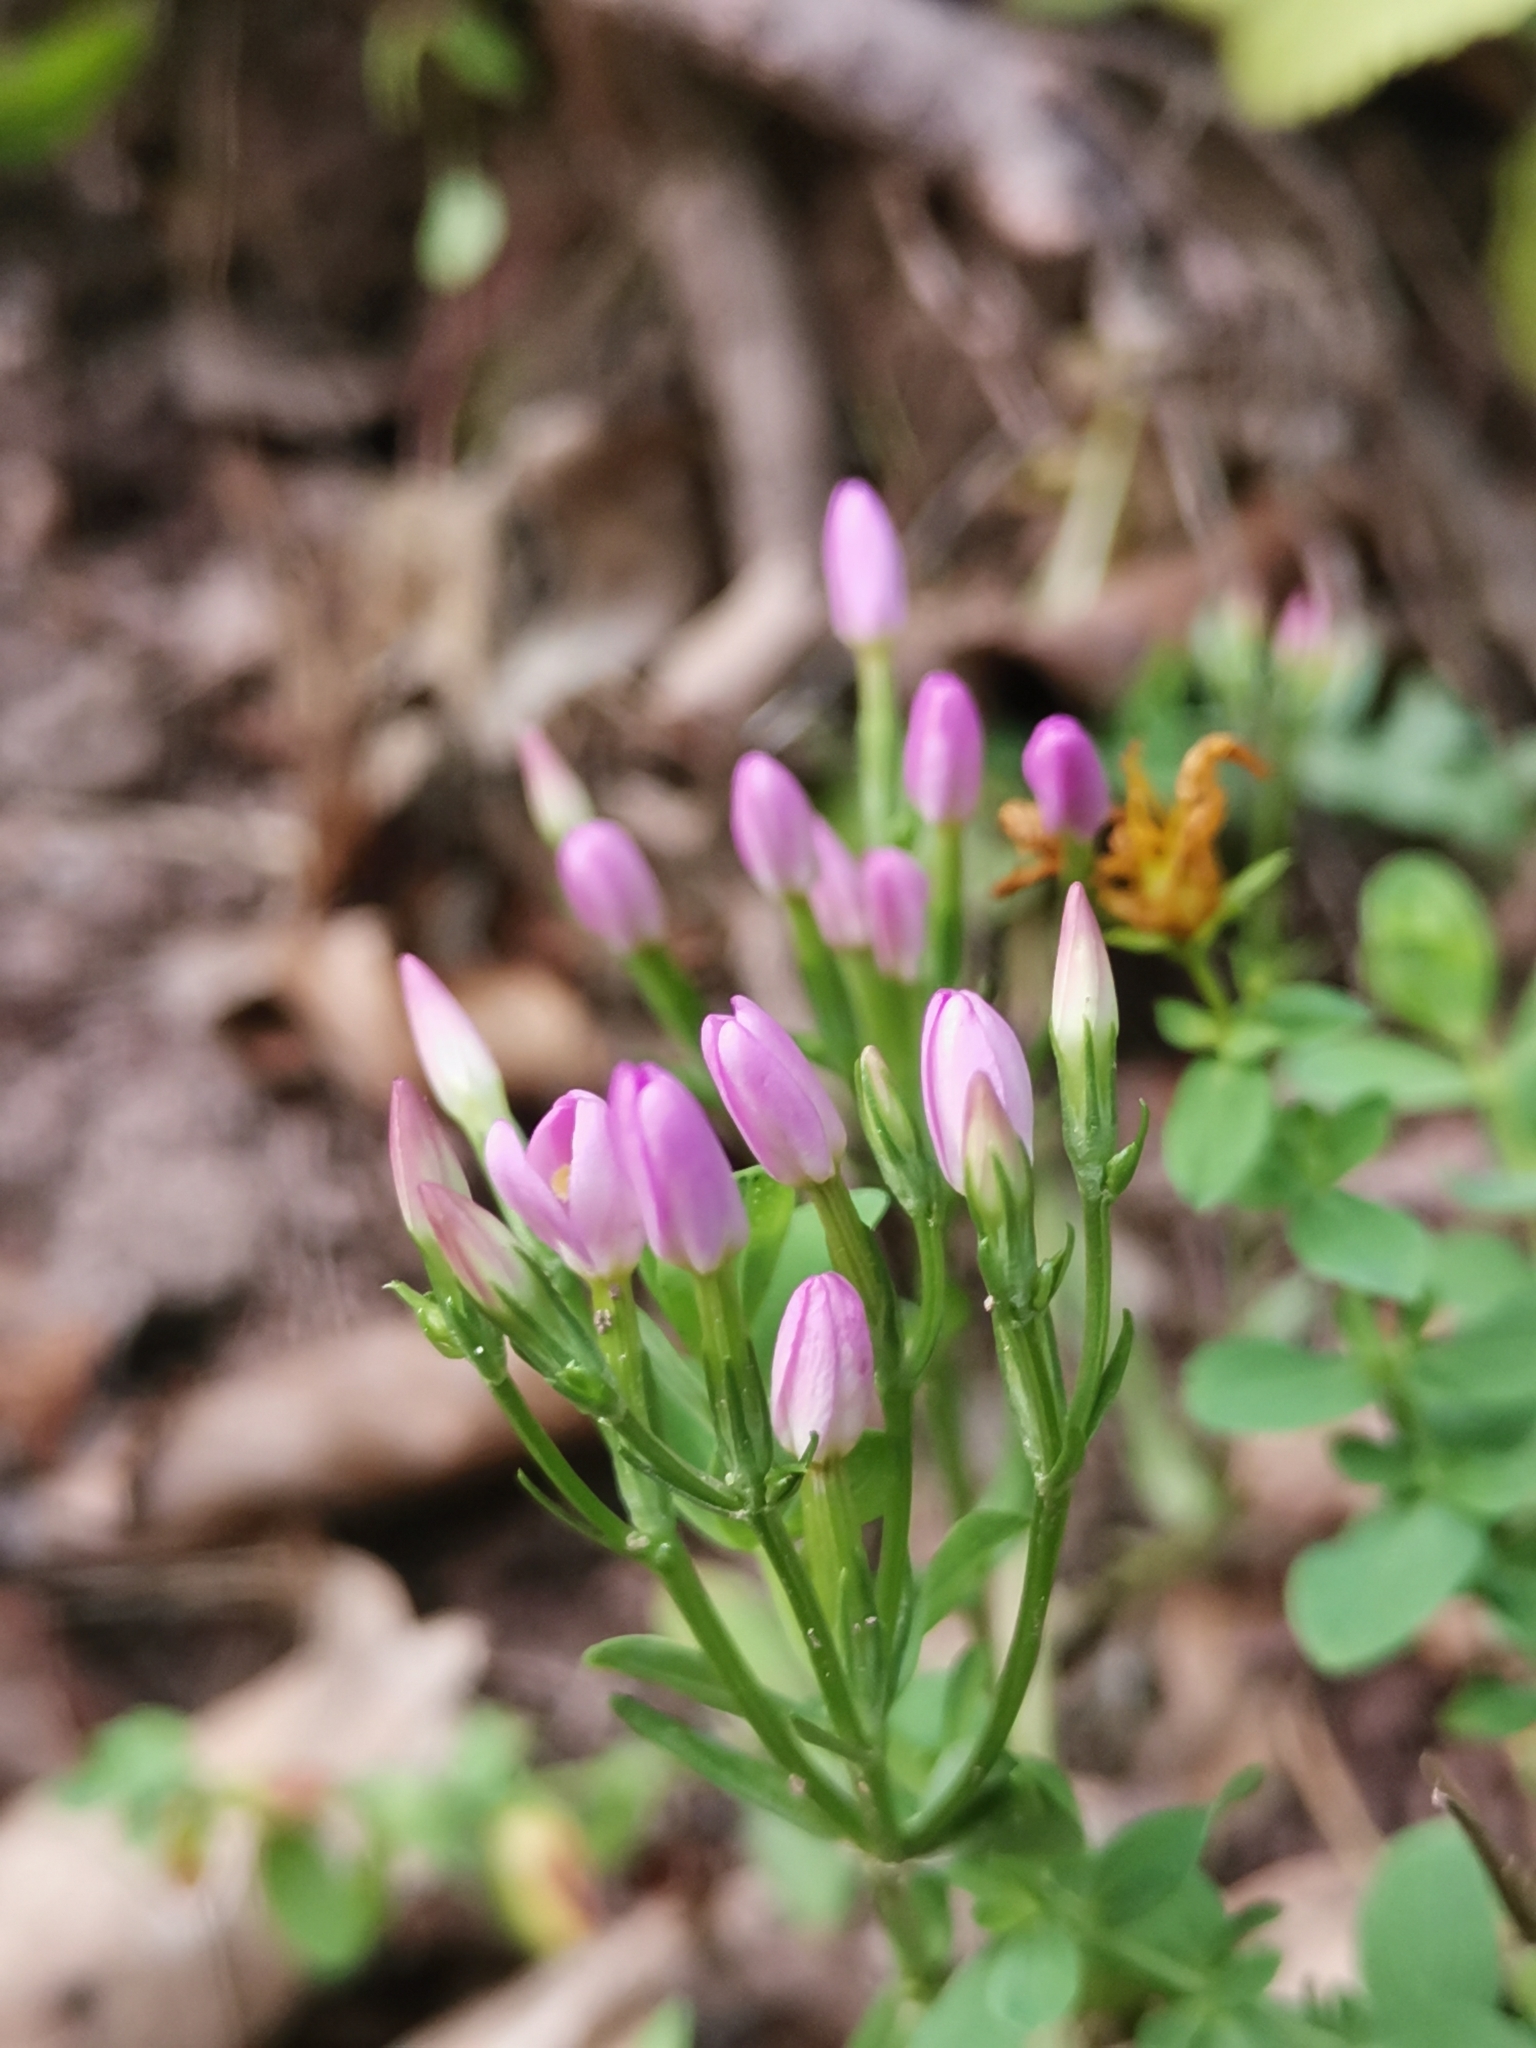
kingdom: Plantae
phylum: Tracheophyta
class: Magnoliopsida
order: Gentianales
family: Gentianaceae
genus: Centaurium
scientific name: Centaurium erythraea
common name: Common centaury
